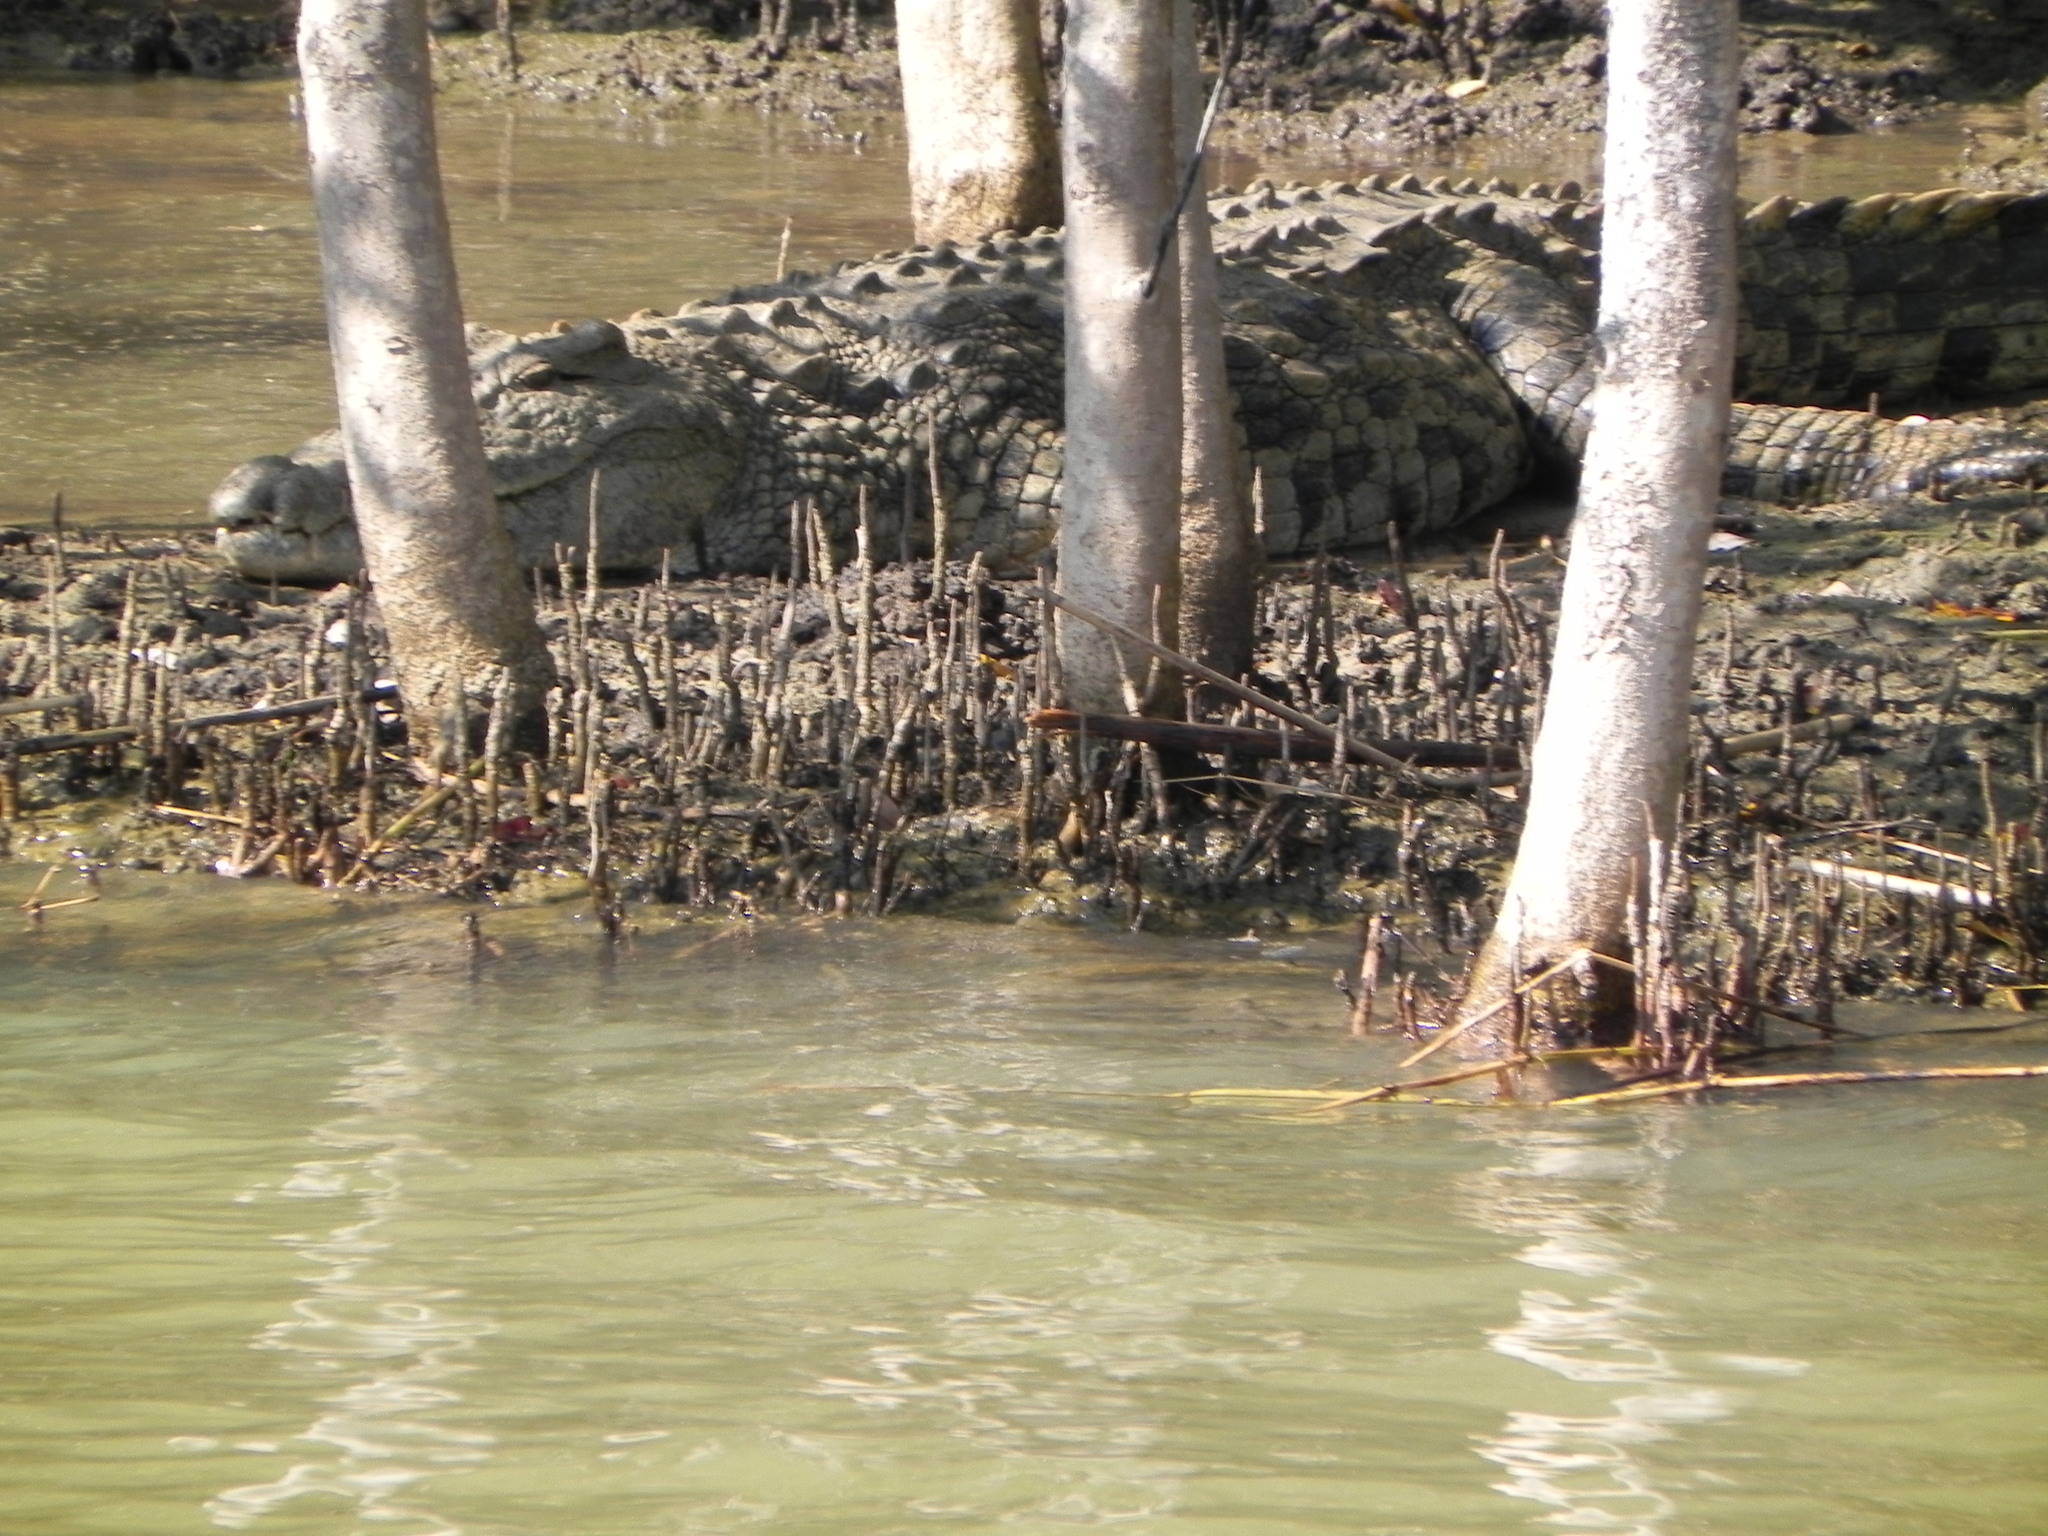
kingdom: Animalia
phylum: Chordata
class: Crocodylia
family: Crocodylidae
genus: Crocodylus
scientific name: Crocodylus niloticus
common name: Nile crocodile
